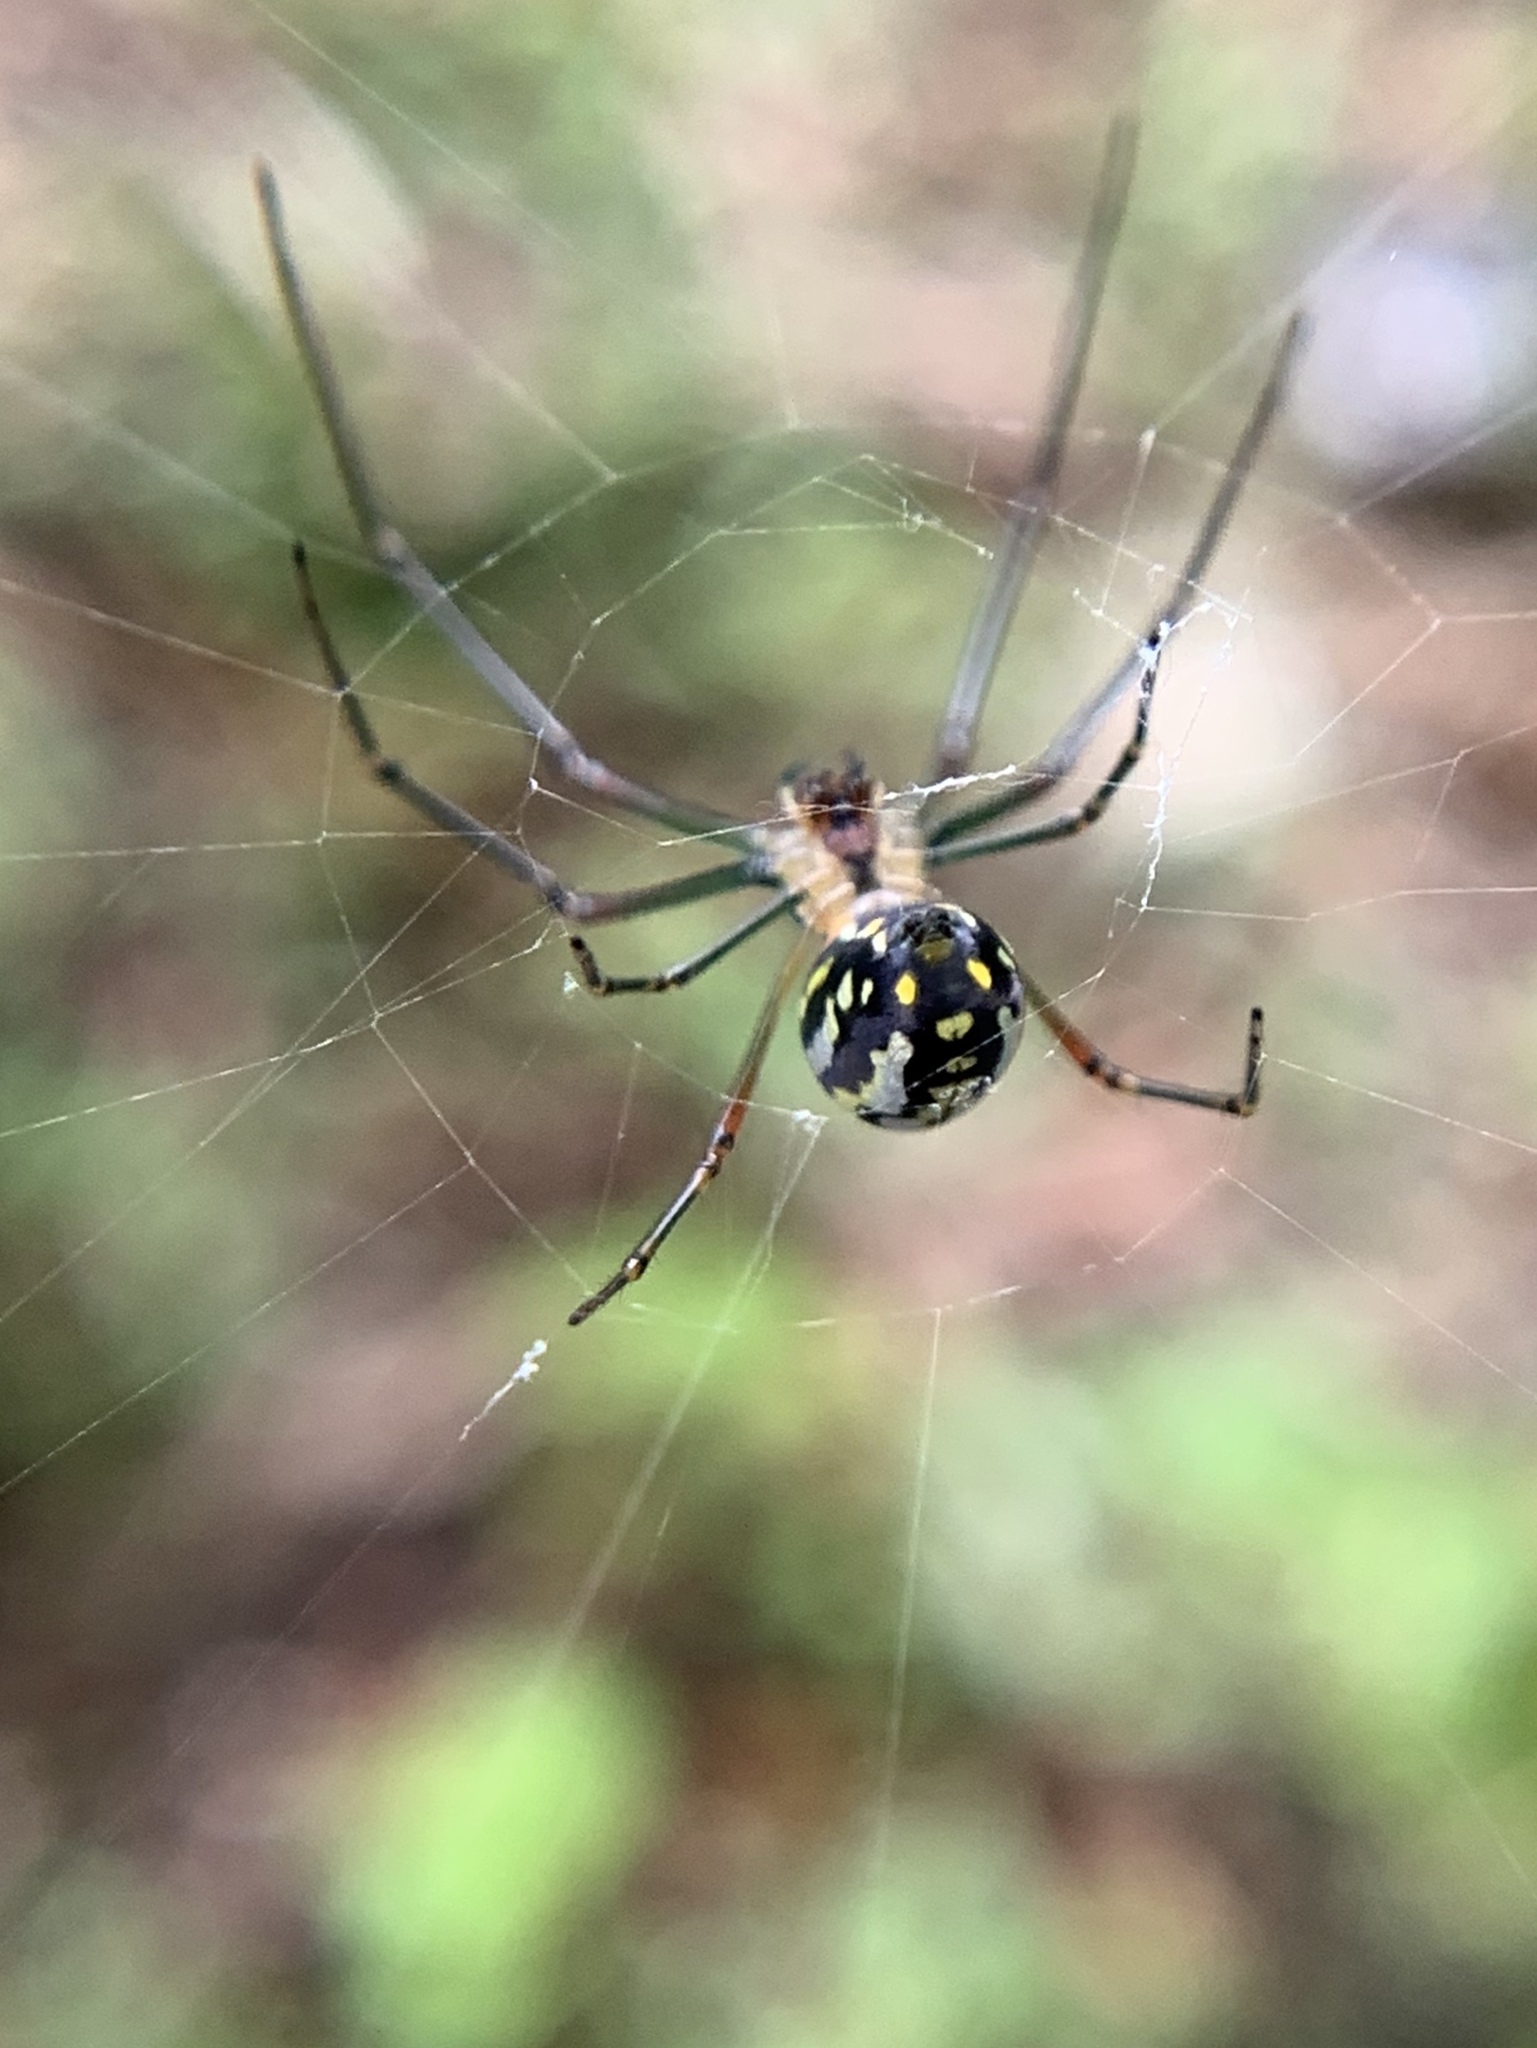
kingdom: Animalia
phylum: Arthropoda
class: Arachnida
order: Araneae
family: Tetragnathidae
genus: Leucauge
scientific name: Leucauge argyra
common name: Longjawed orb weavers
